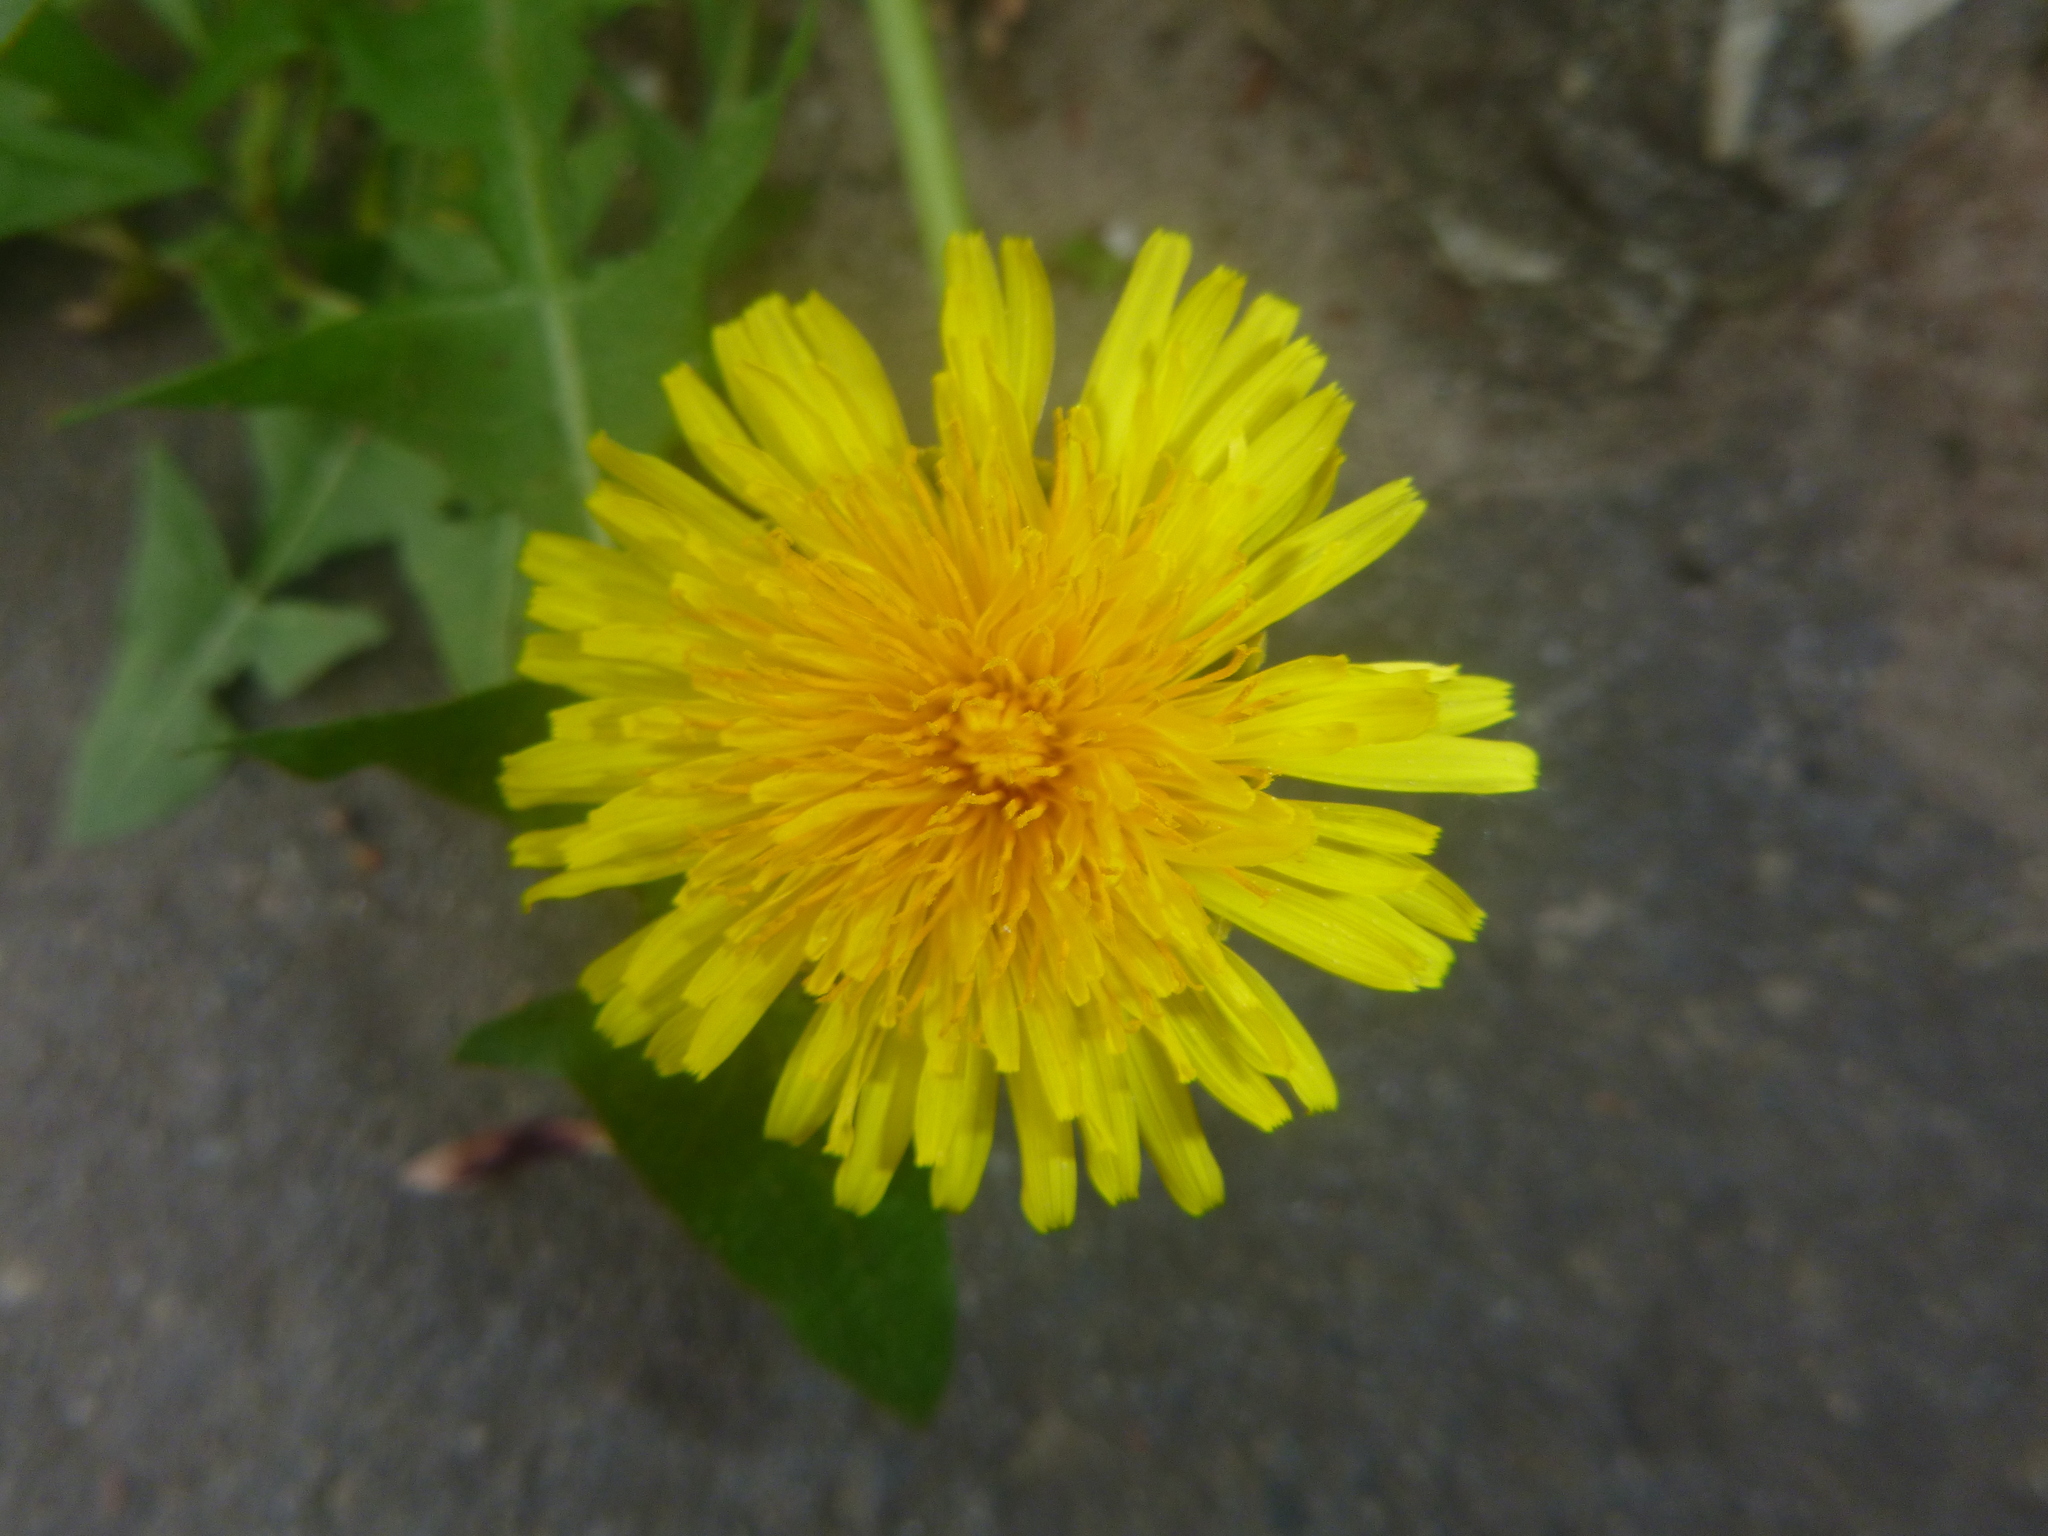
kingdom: Plantae
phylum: Tracheophyta
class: Magnoliopsida
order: Asterales
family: Asteraceae
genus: Taraxacum
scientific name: Taraxacum officinale
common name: Common dandelion
